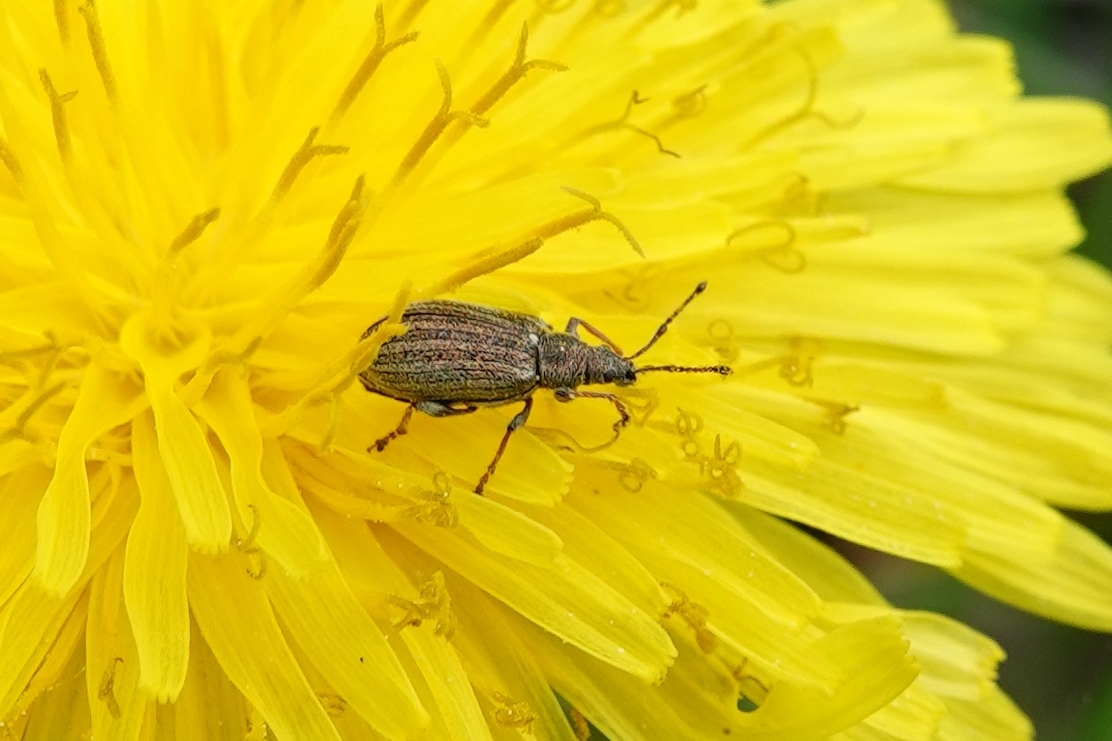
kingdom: Animalia
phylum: Arthropoda
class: Insecta
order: Coleoptera
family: Curculionidae
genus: Phyllobius
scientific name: Phyllobius pyri
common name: Common leaf weevil
